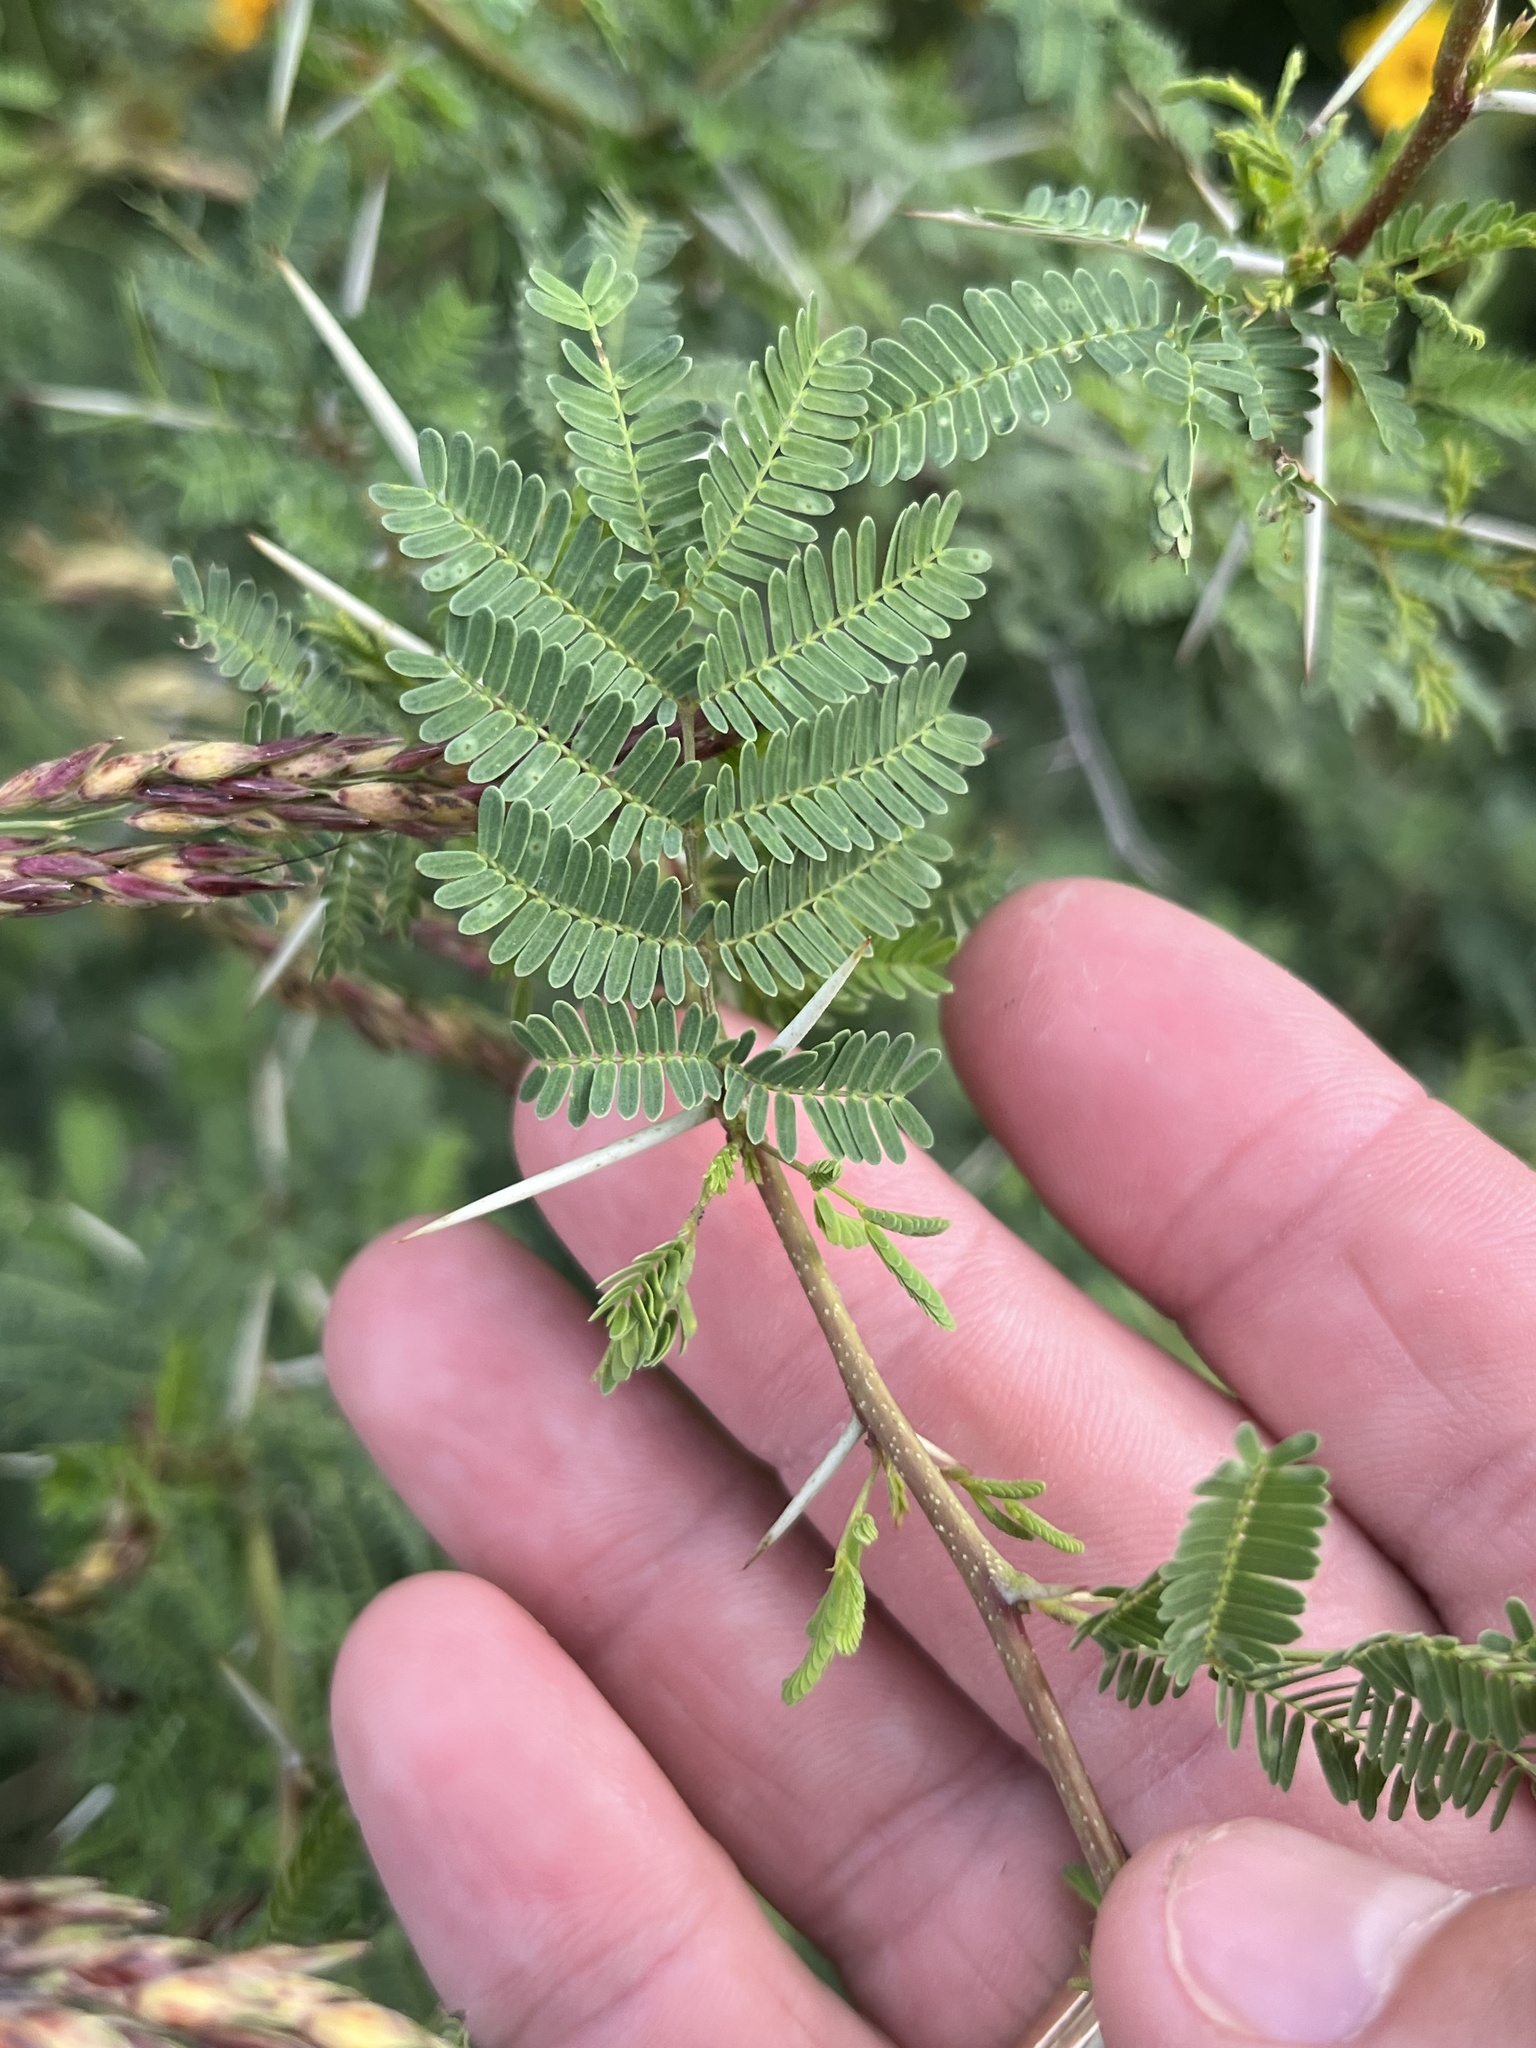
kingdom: Plantae
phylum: Tracheophyta
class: Magnoliopsida
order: Fabales
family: Fabaceae
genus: Vachellia
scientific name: Vachellia farnesiana
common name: Sweet acacia
